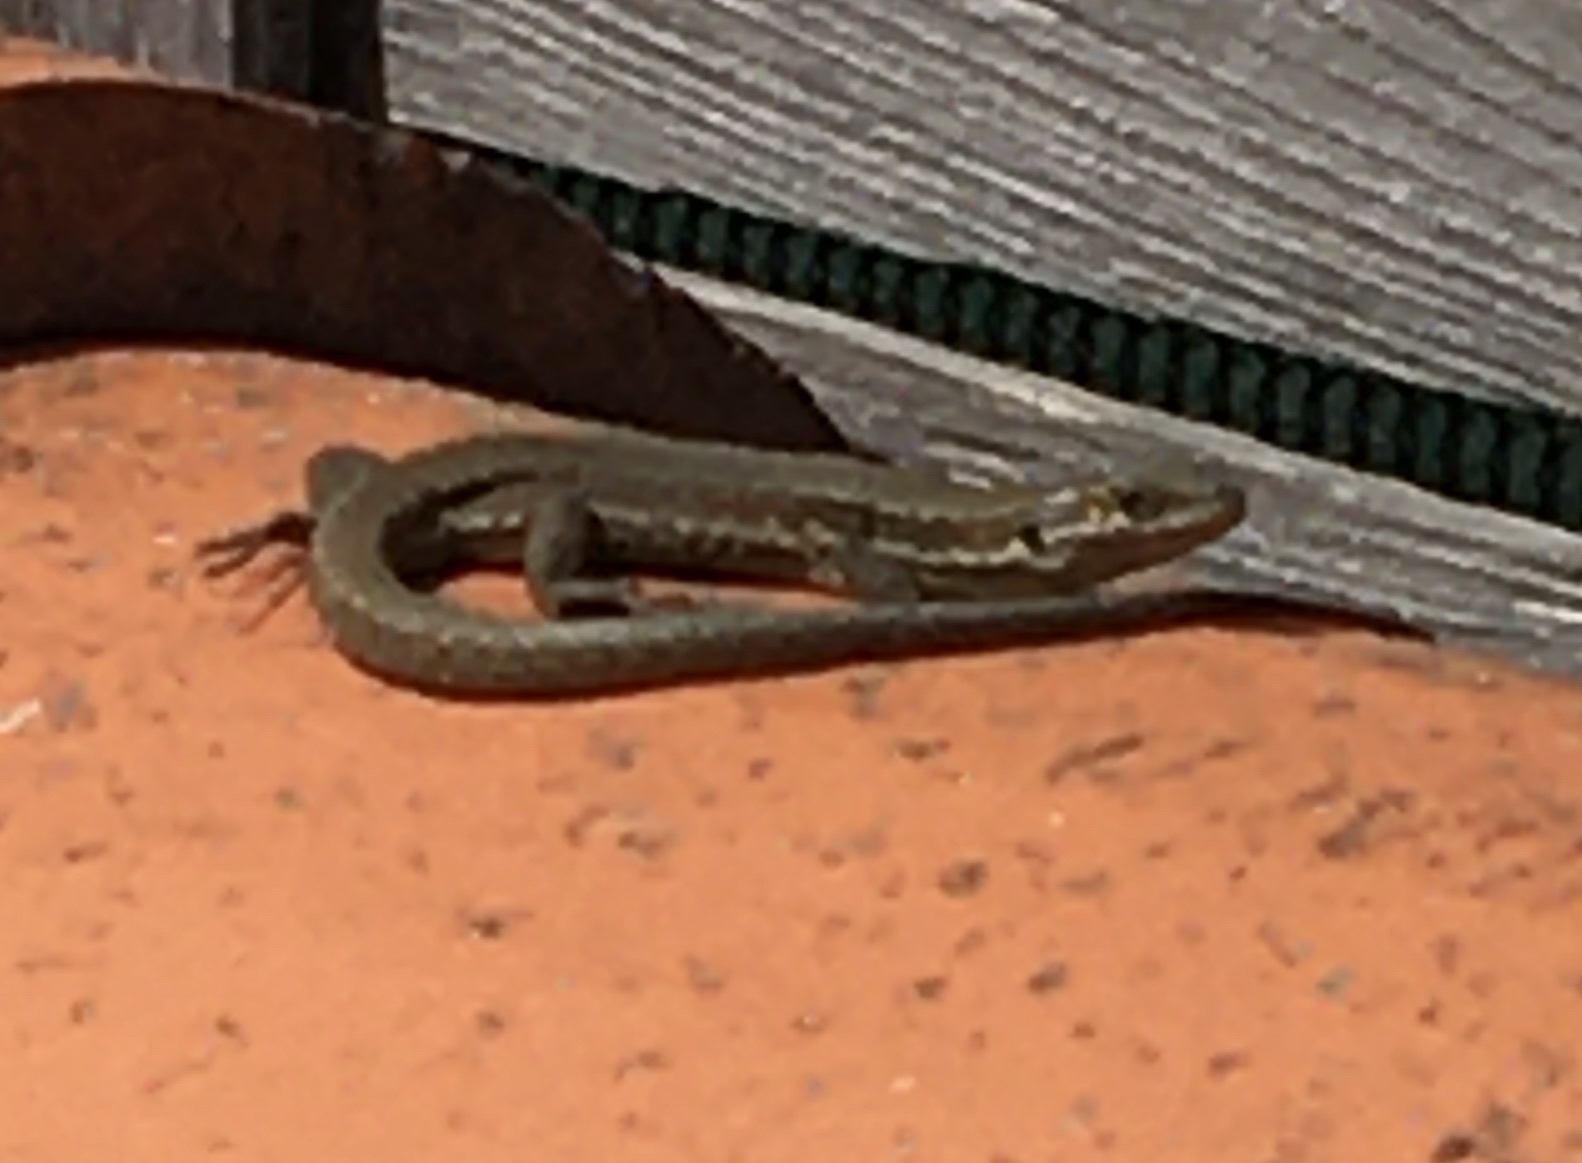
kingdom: Animalia
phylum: Chordata
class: Squamata
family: Lacertidae
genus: Podarcis
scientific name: Podarcis muralis
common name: Common wall lizard
